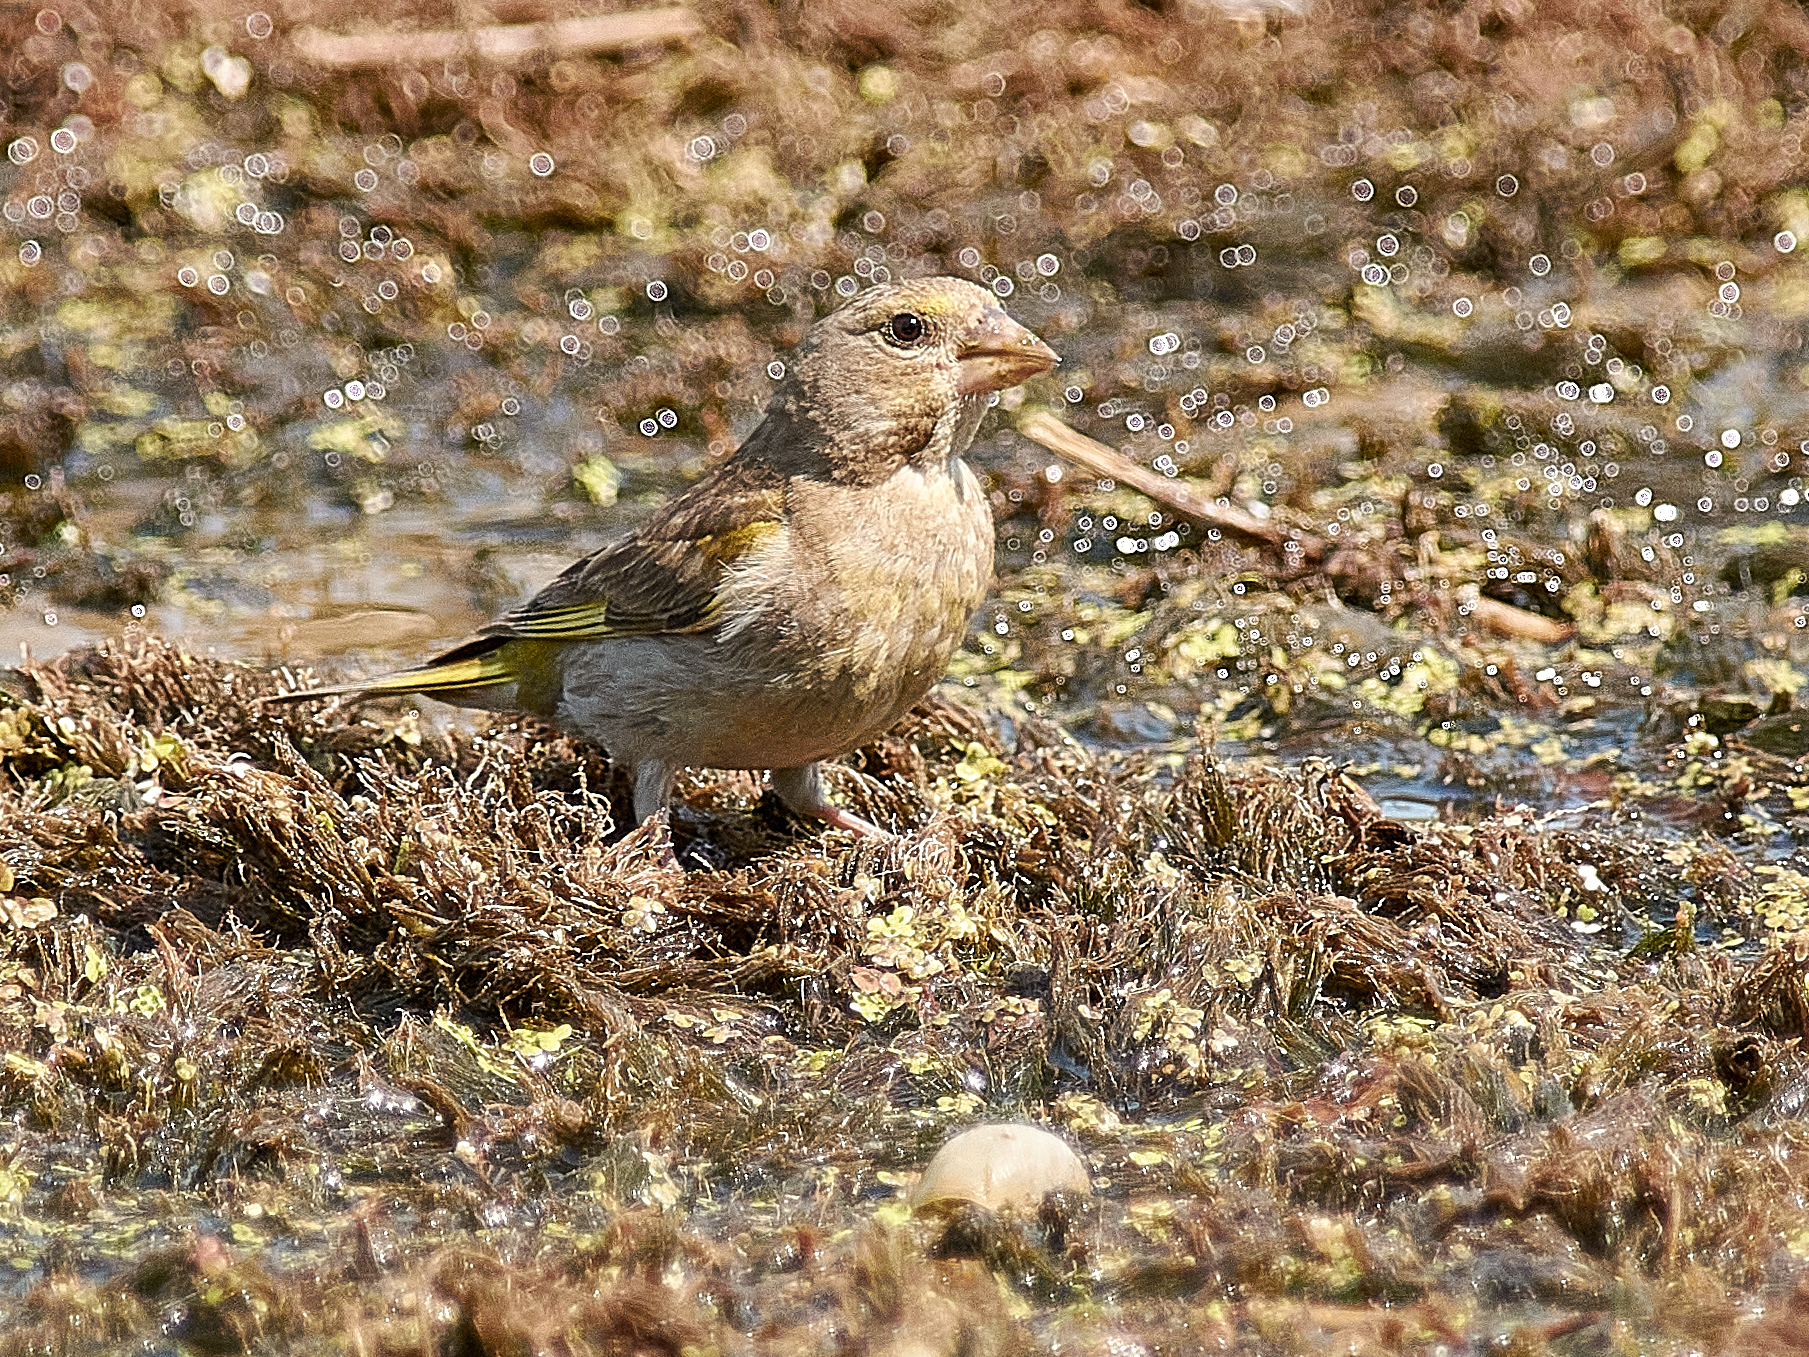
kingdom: Plantae
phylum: Tracheophyta
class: Liliopsida
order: Poales
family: Poaceae
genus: Chloris
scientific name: Chloris chloris
